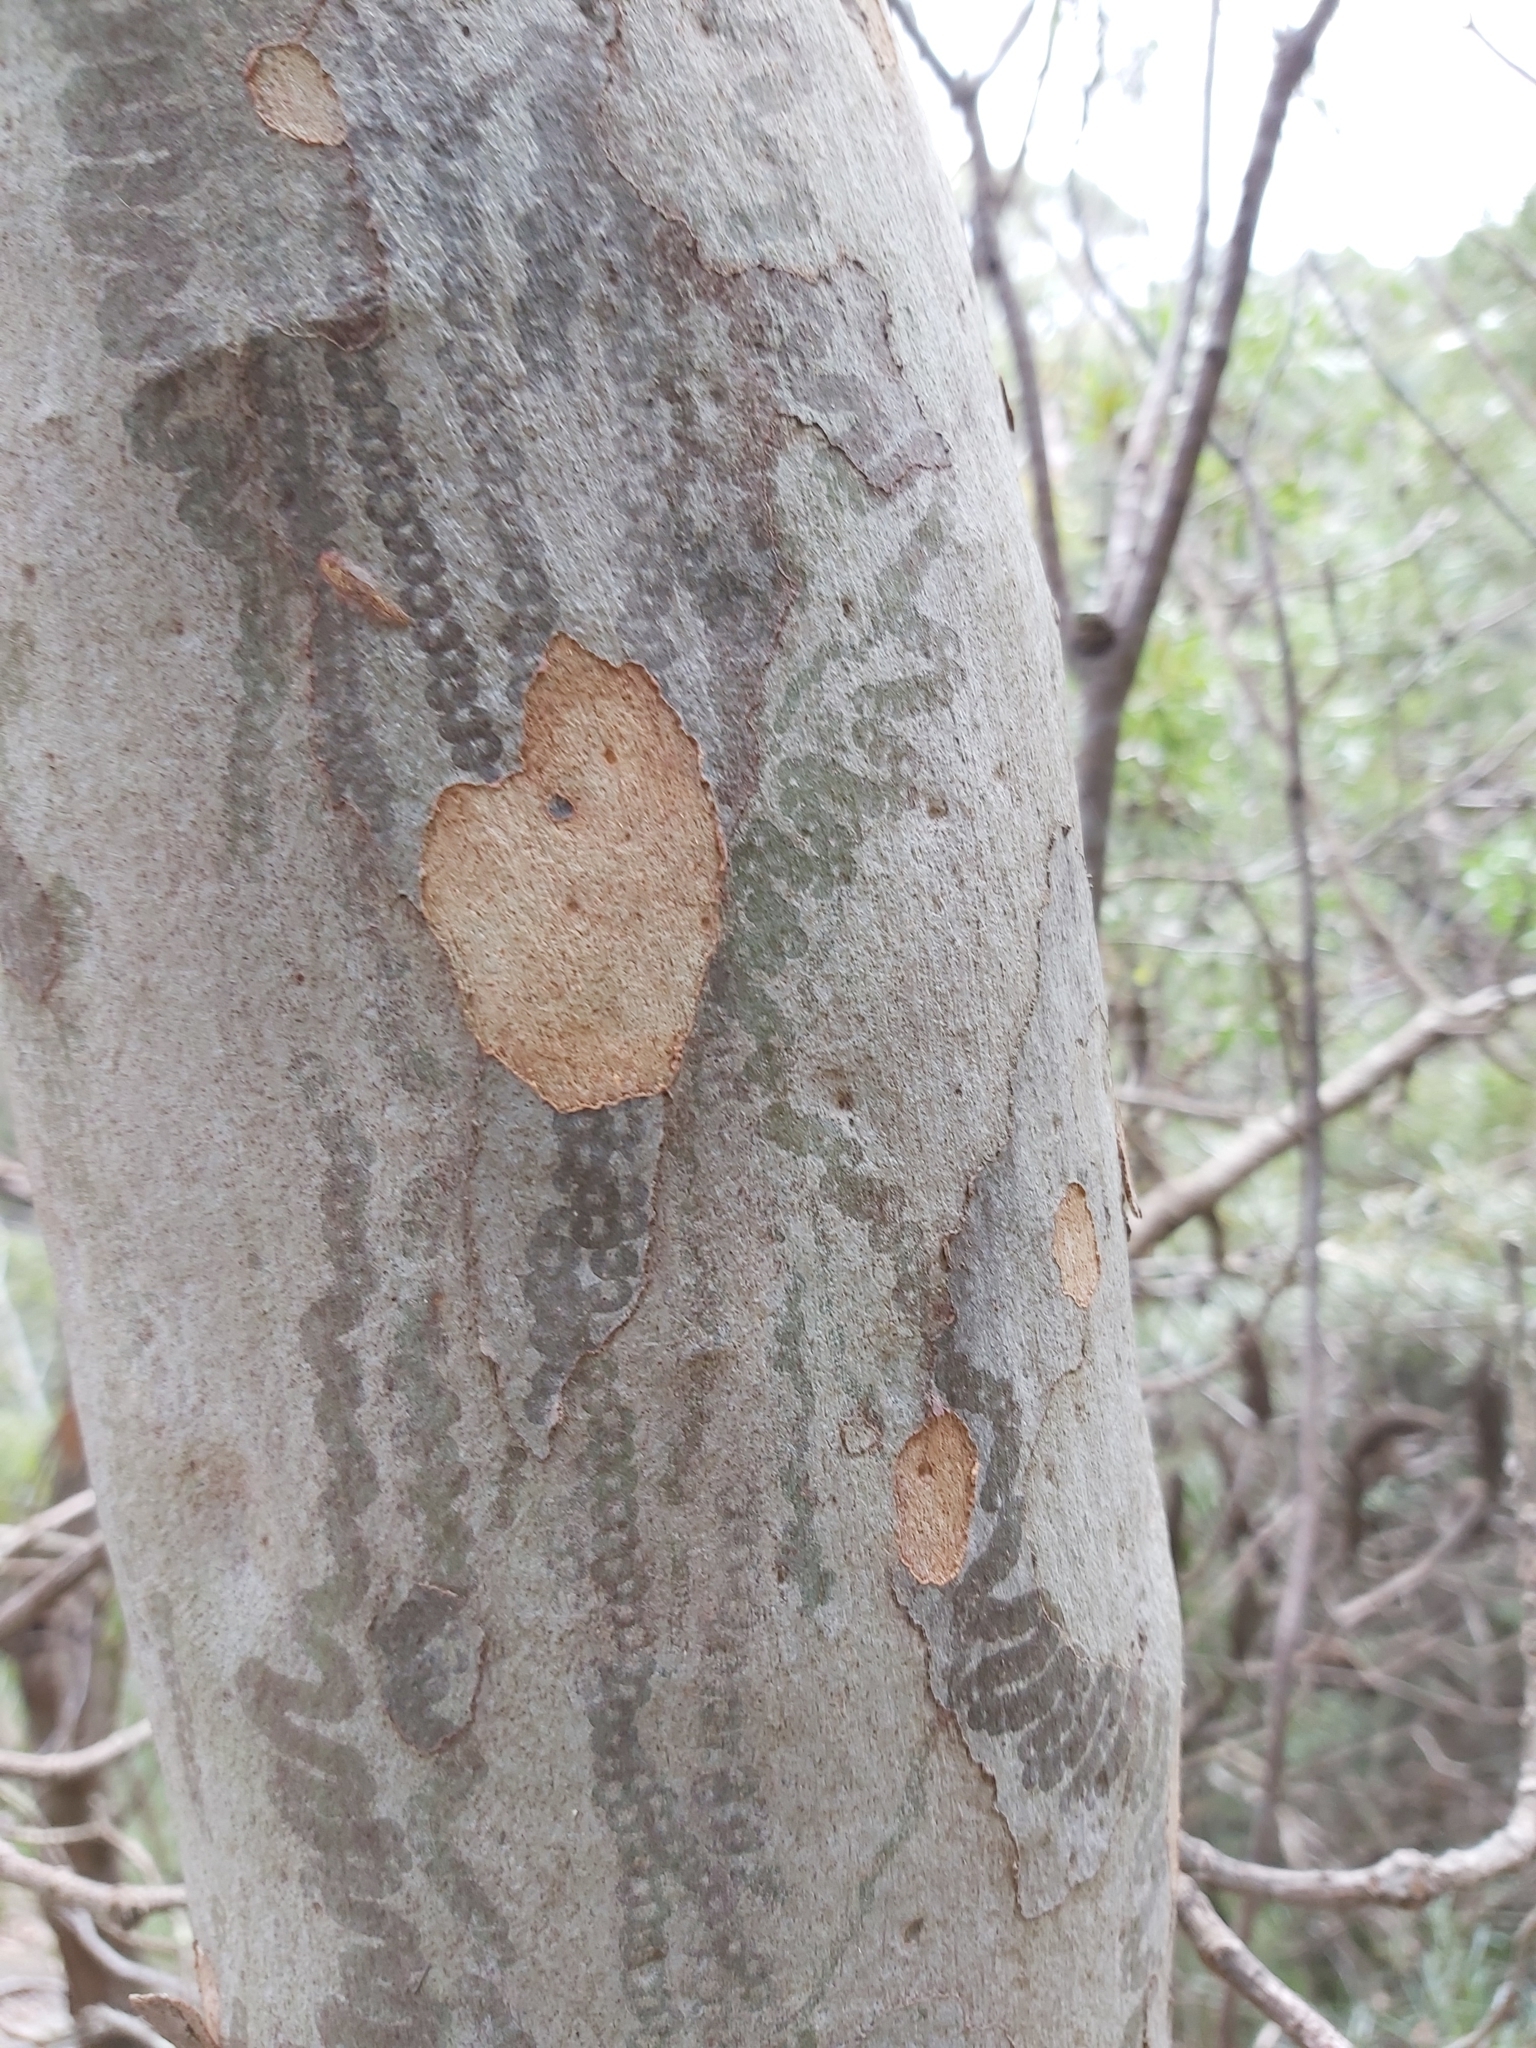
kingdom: Animalia
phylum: Mollusca
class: Gastropoda
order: Stylommatophora
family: Athoracophoridae
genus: Triboniophorus
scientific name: Triboniophorus graeffei
